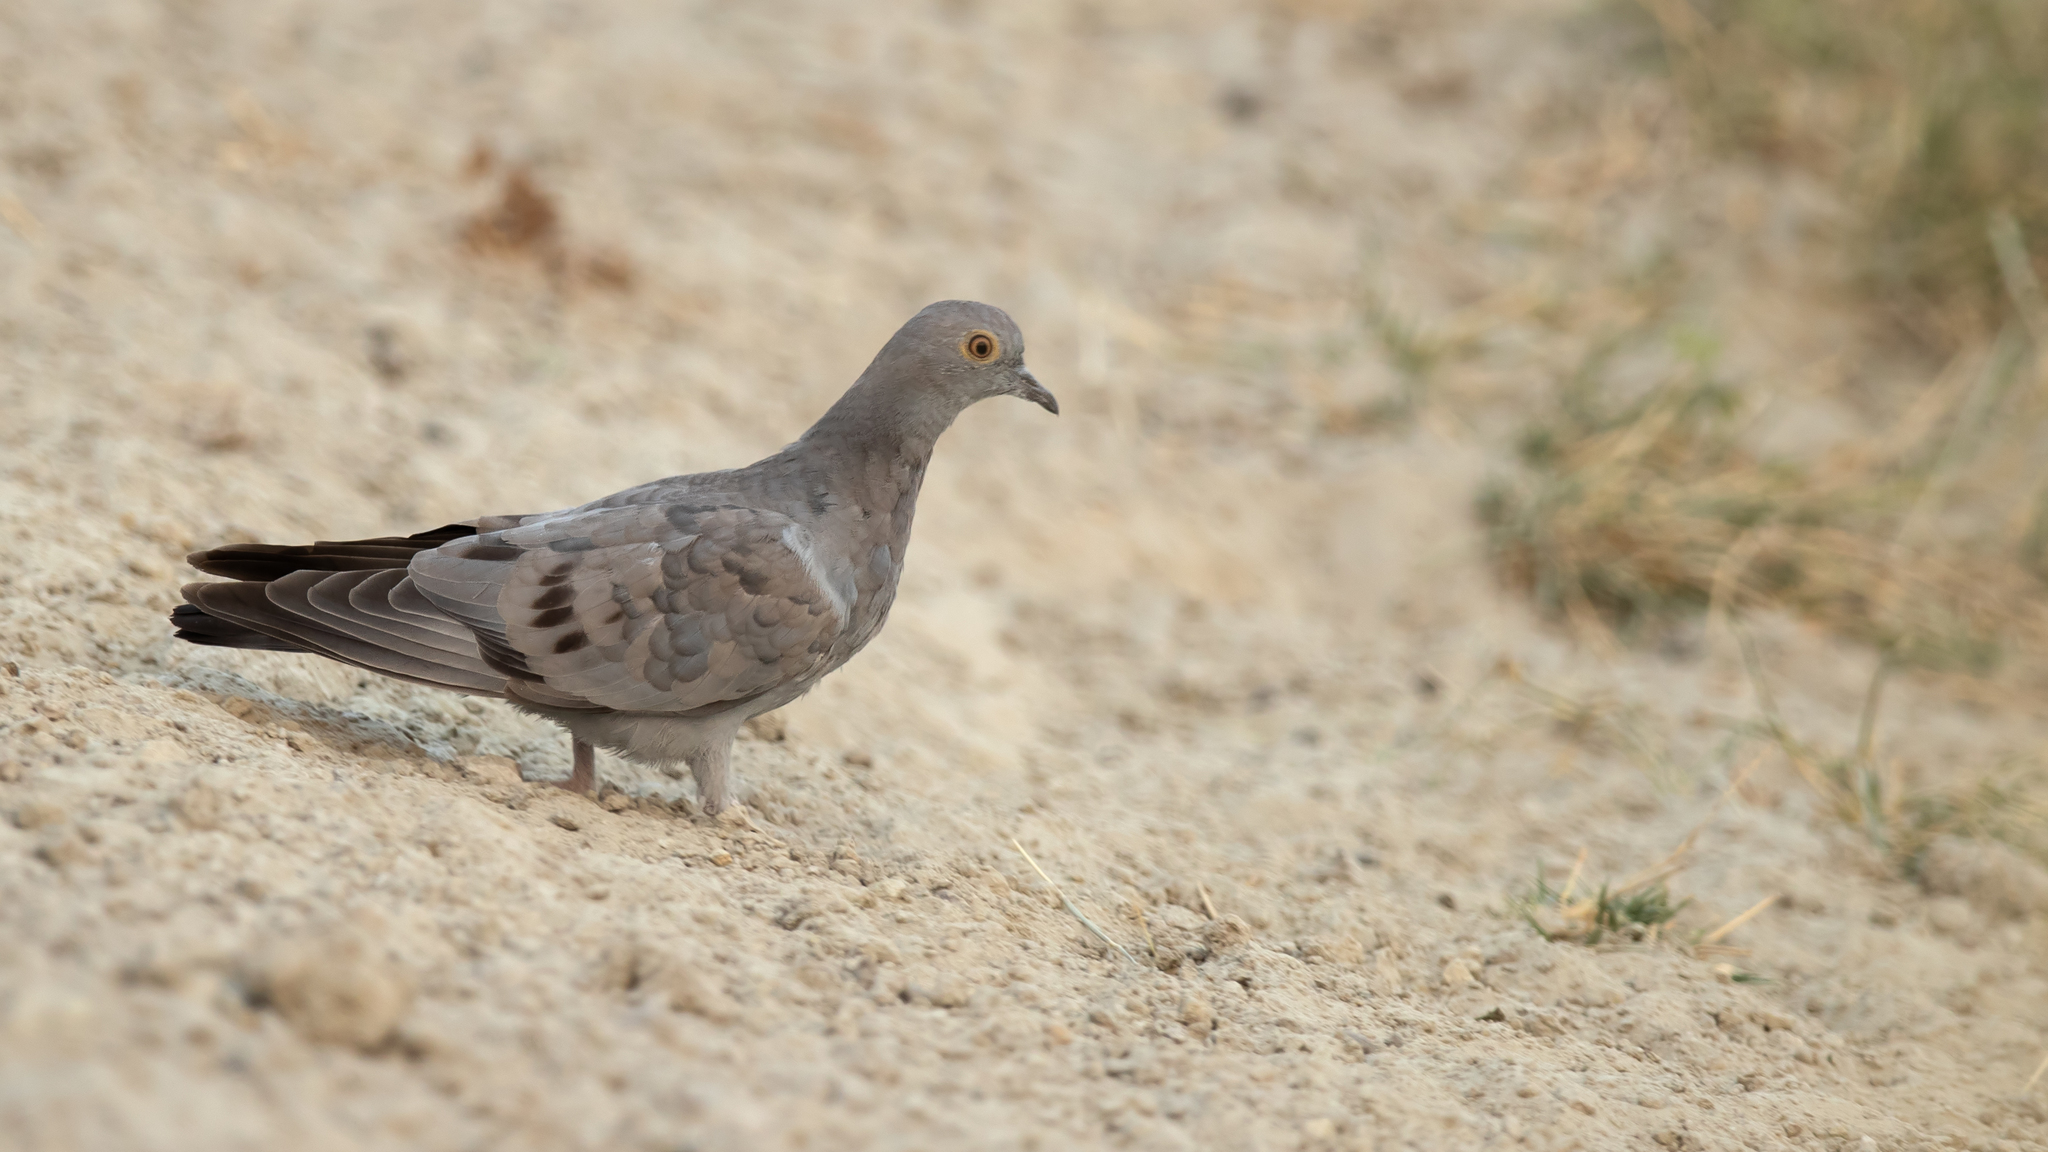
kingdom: Animalia
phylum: Chordata
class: Aves
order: Columbiformes
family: Columbidae
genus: Columba
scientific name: Columba eversmanni
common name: Yellow-eyed pigeon
